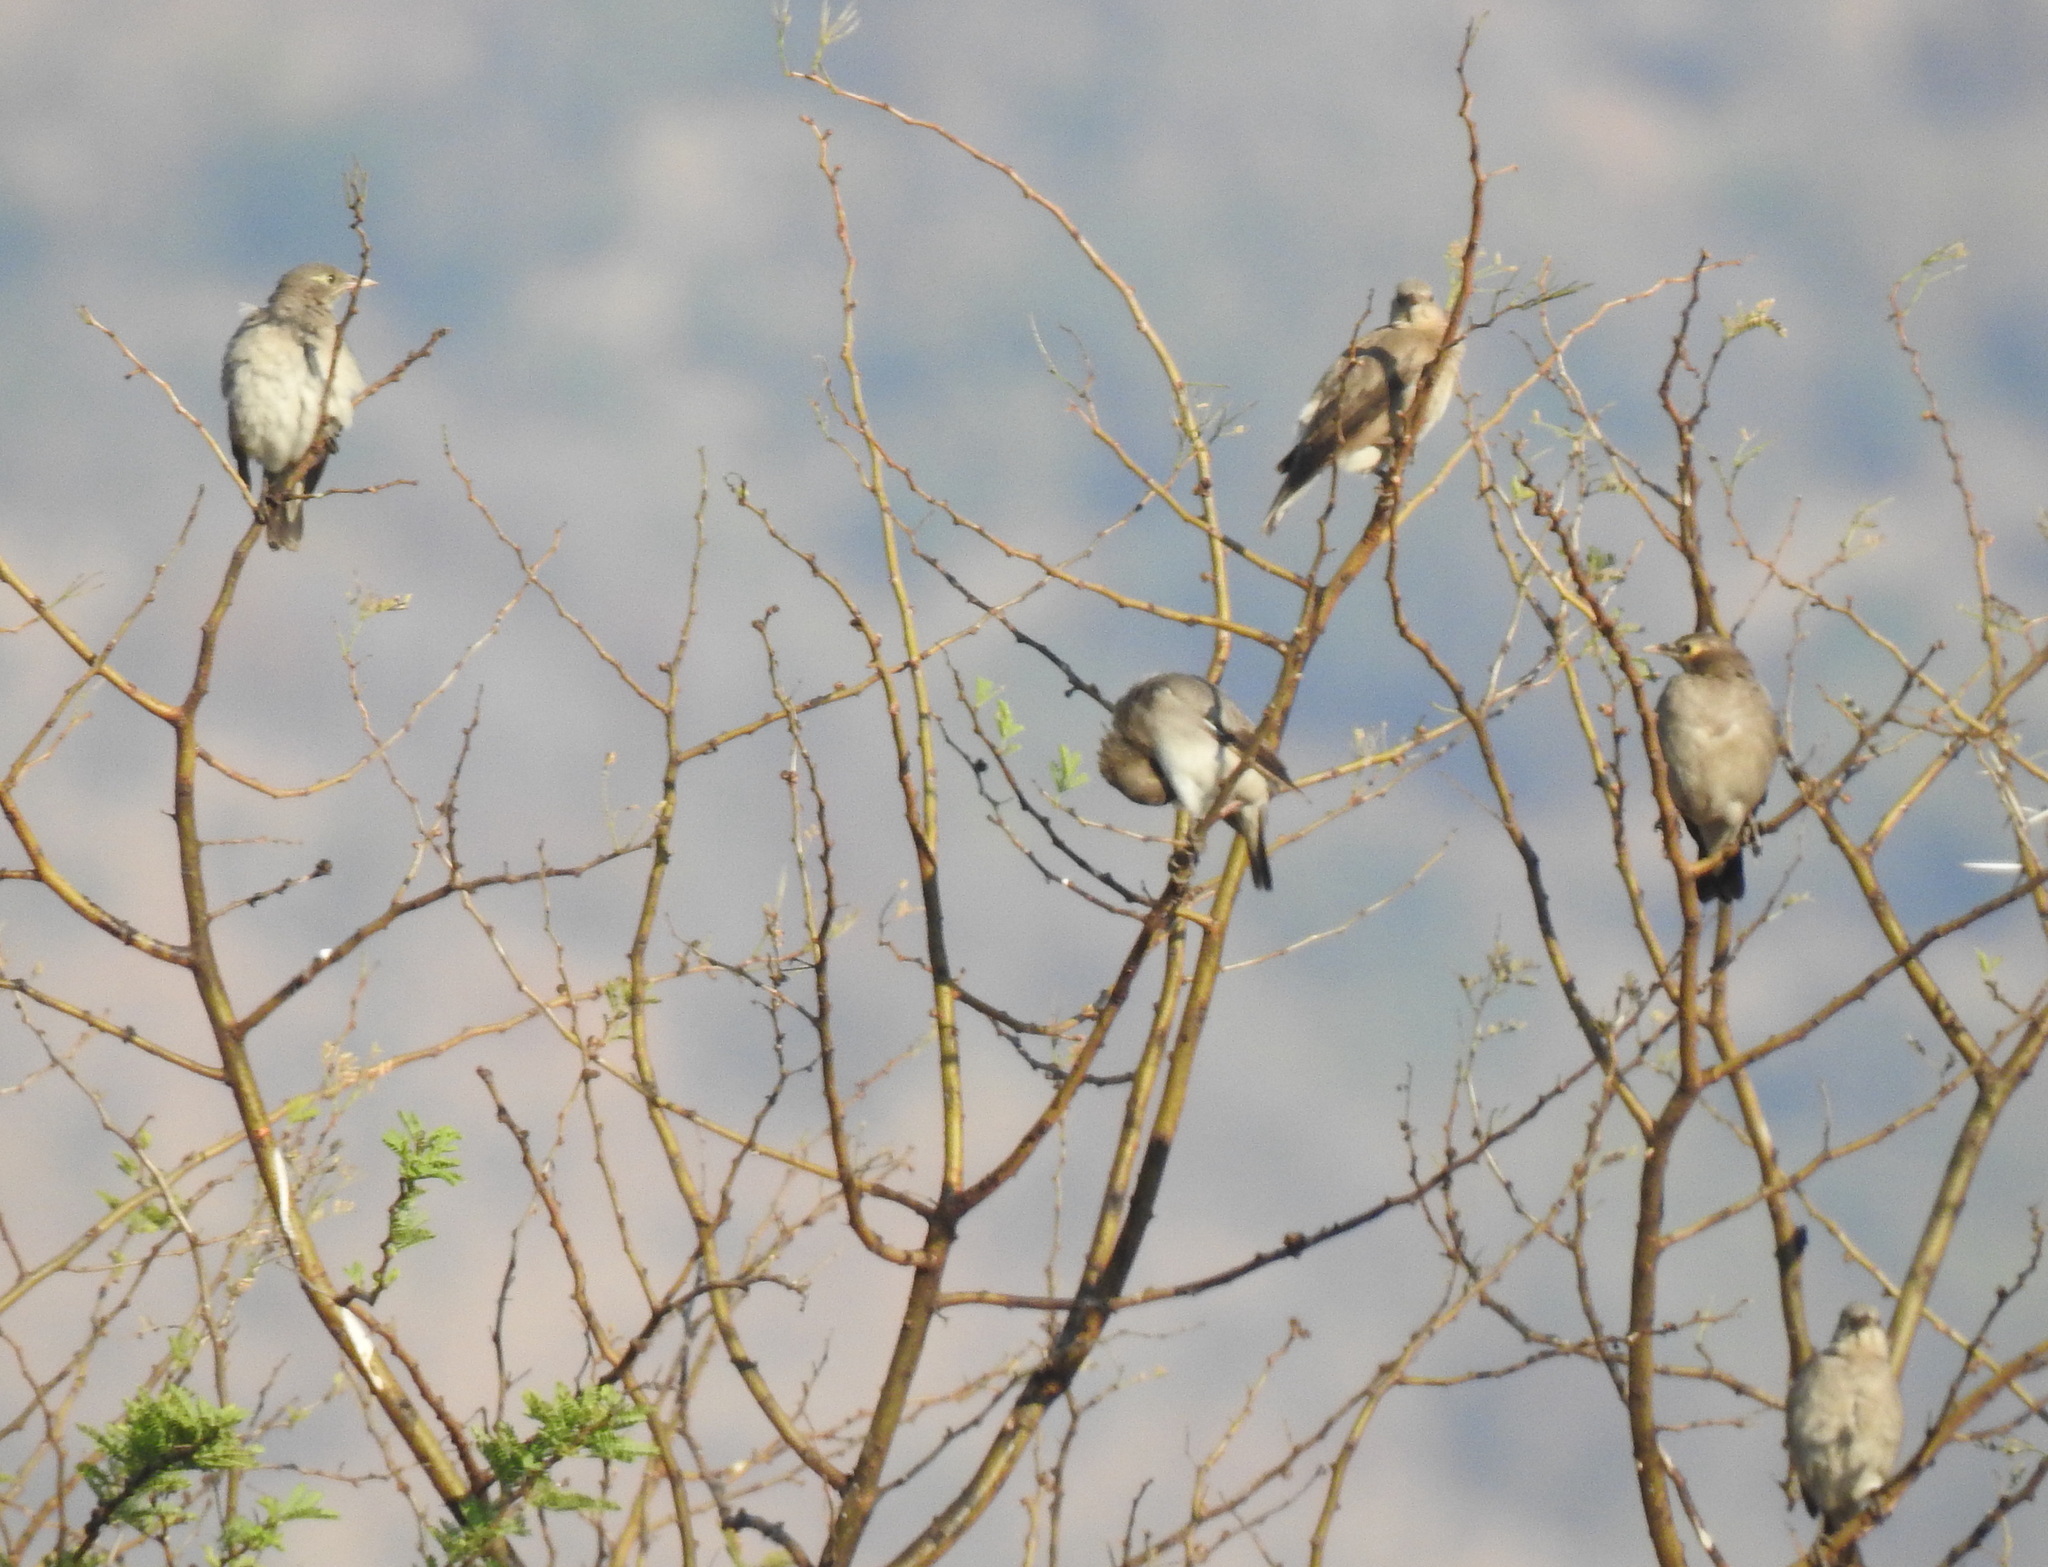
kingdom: Animalia
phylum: Chordata
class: Aves
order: Passeriformes
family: Sturnidae
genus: Creatophora
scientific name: Creatophora cinerea
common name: Wattled starling
